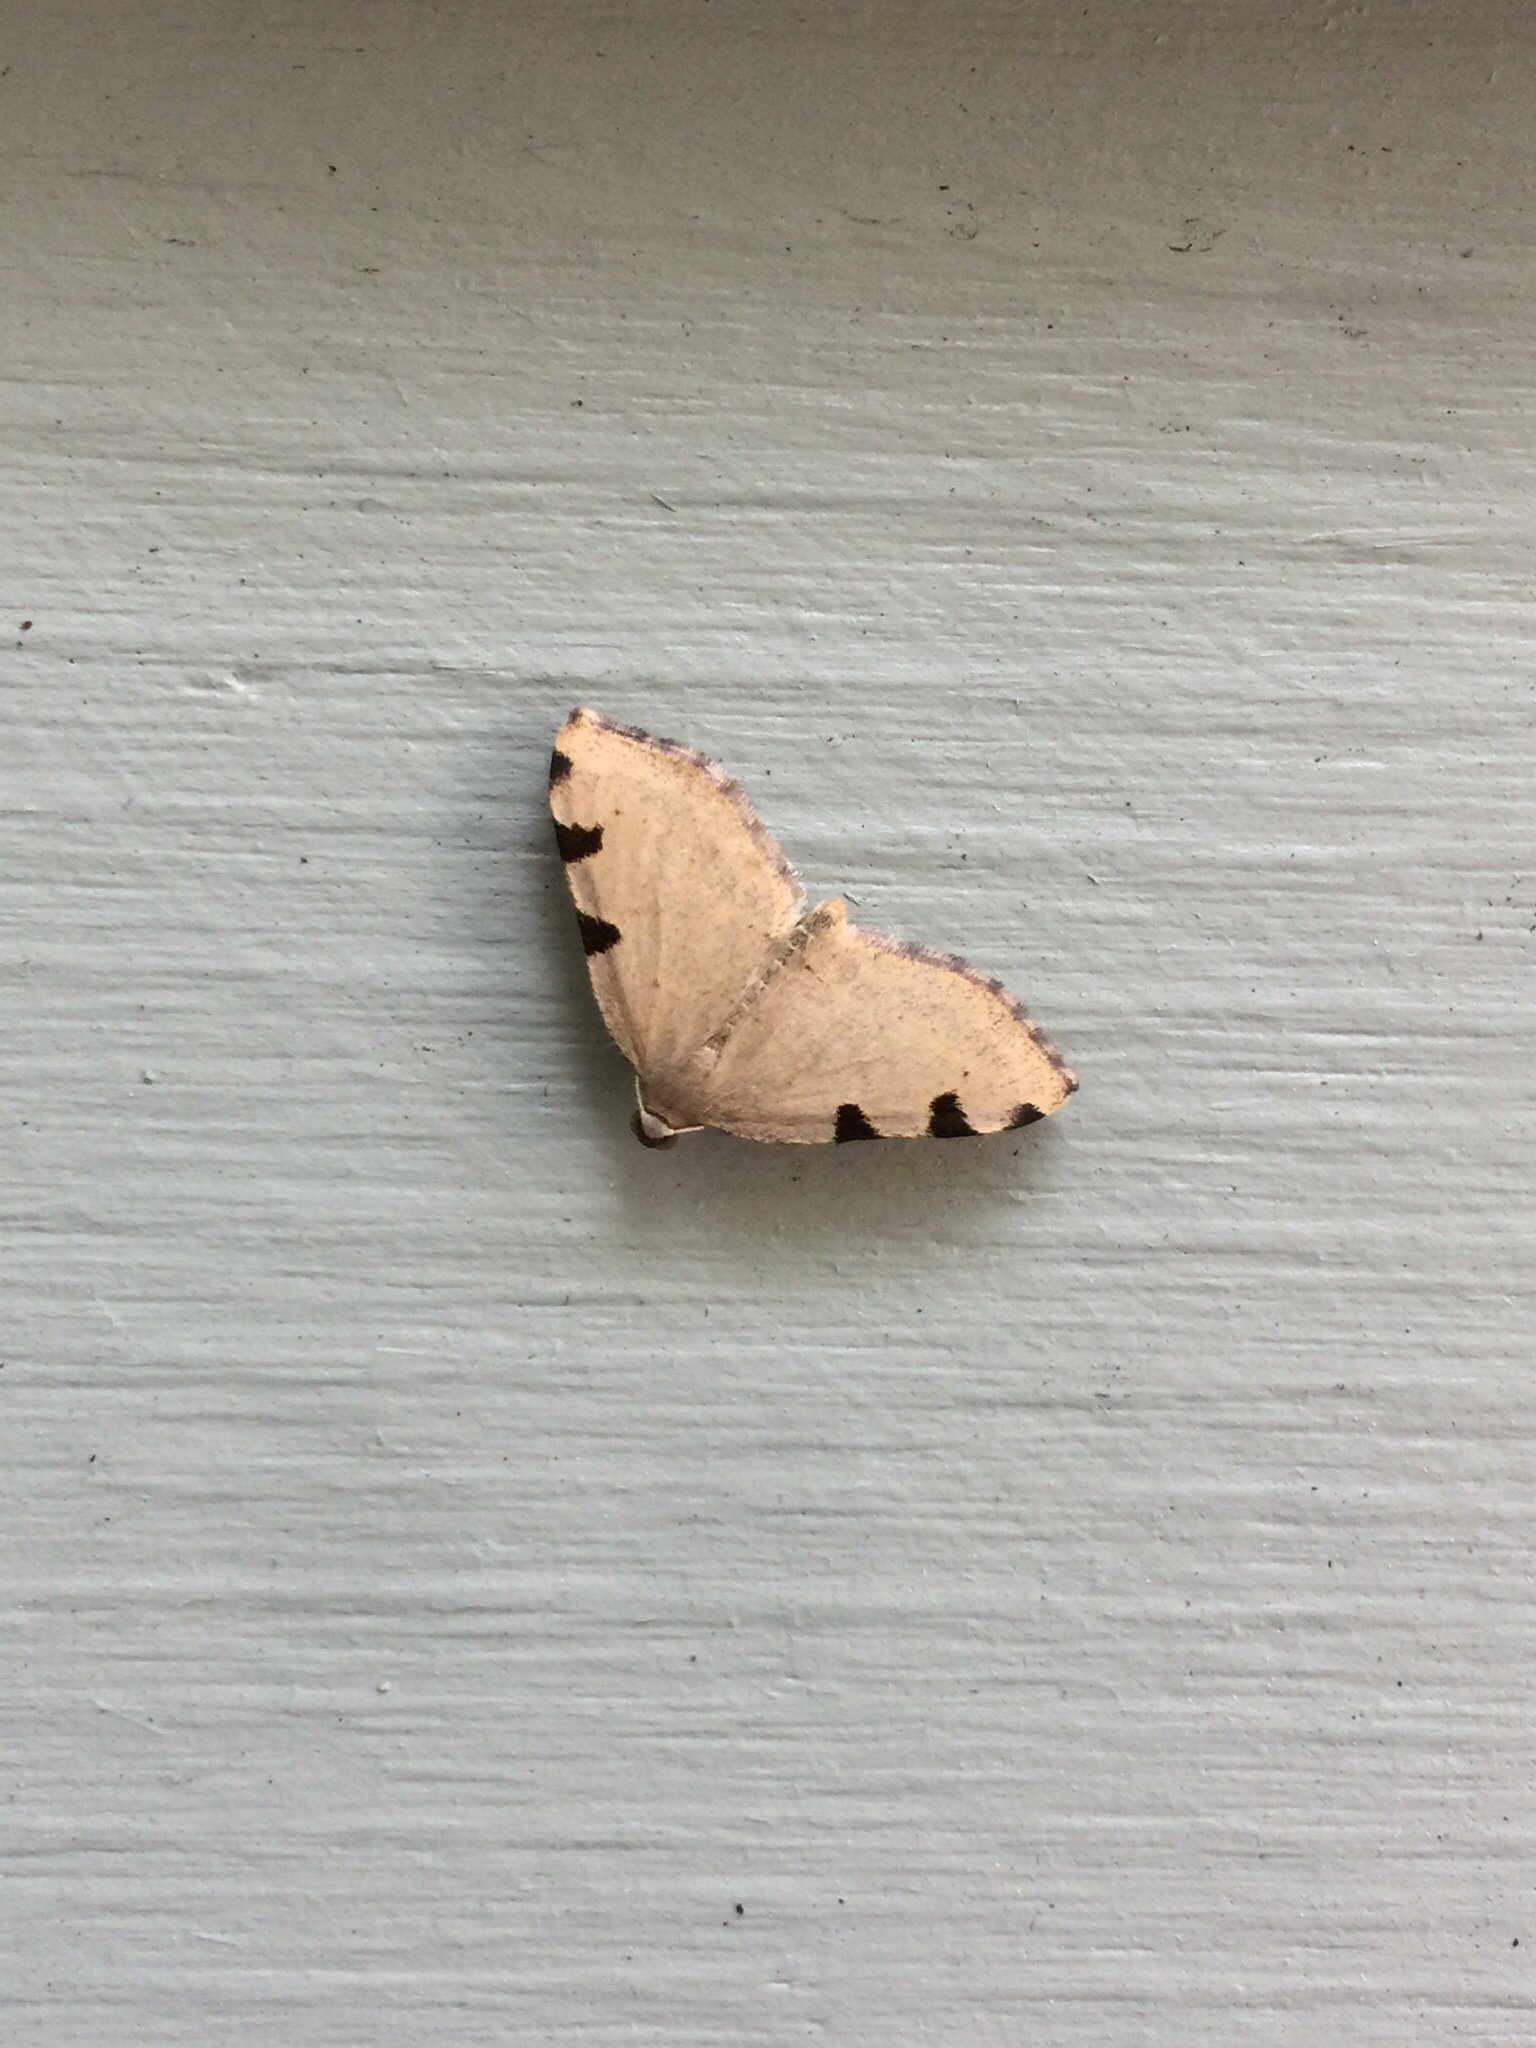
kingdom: Animalia
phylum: Arthropoda
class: Insecta
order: Lepidoptera
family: Geometridae
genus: Heterophleps
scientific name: Heterophleps triguttaria
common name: Three-spotted fillip
